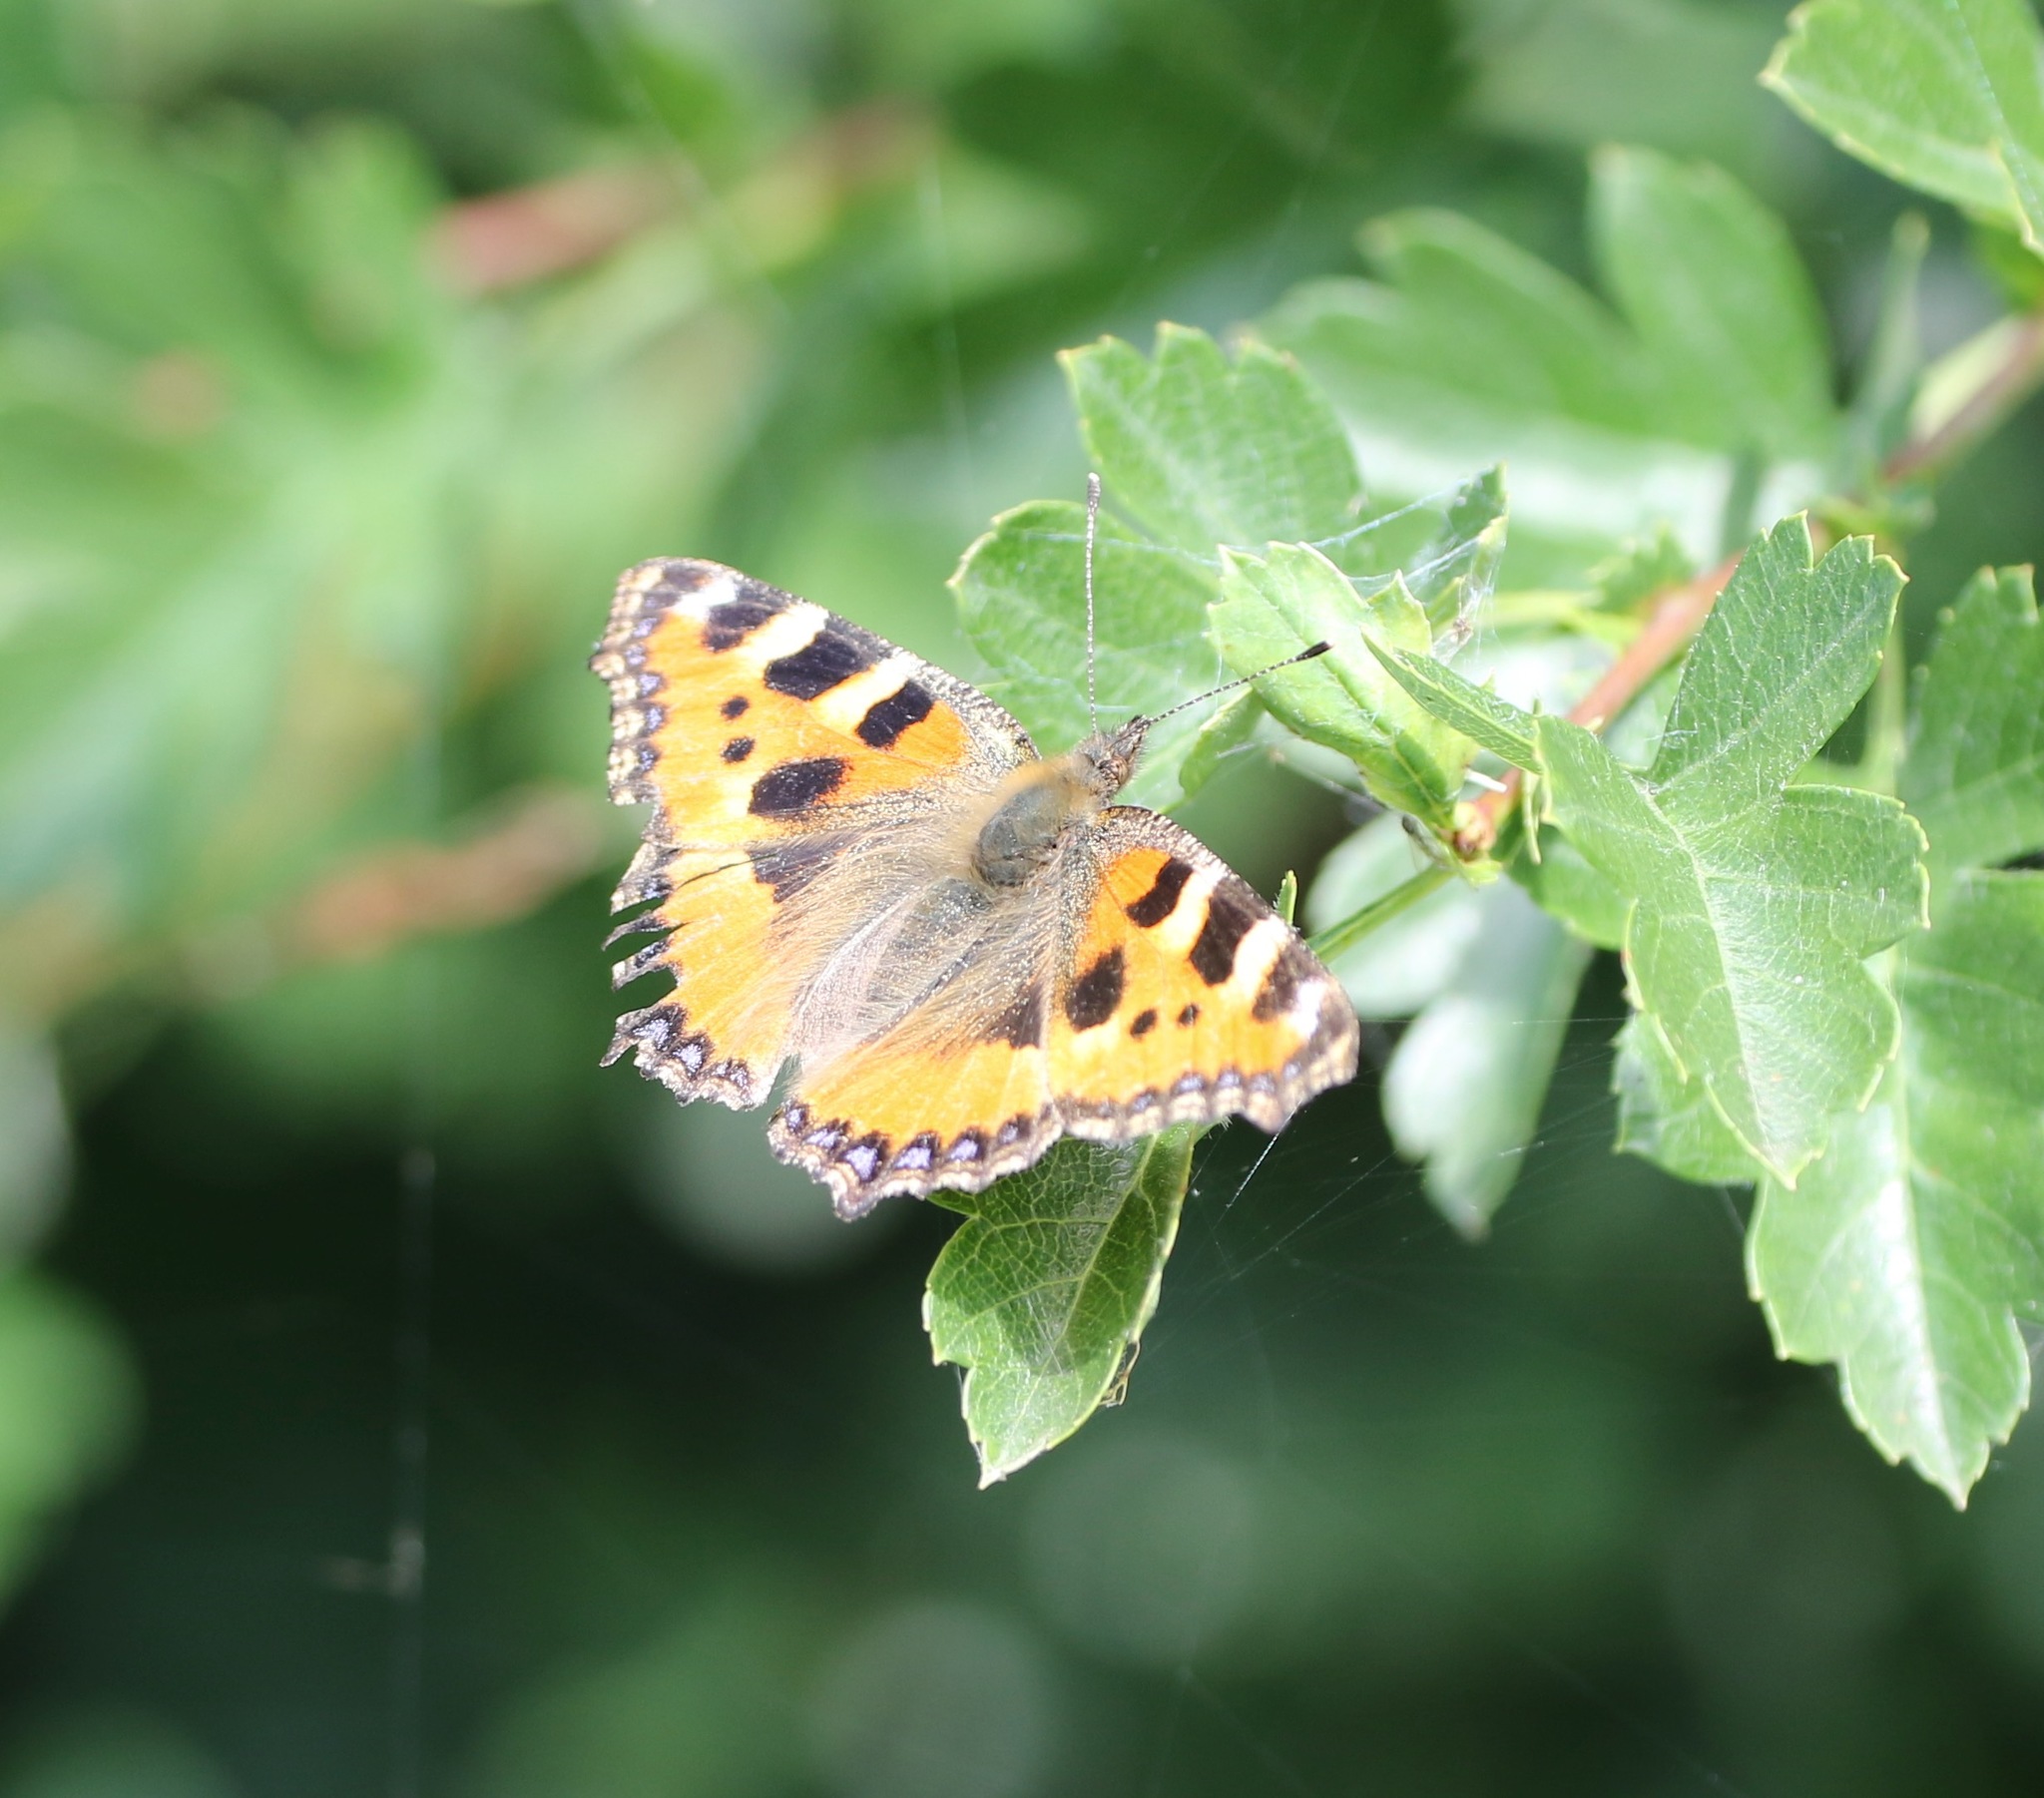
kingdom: Animalia
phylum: Arthropoda
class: Insecta
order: Lepidoptera
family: Nymphalidae
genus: Aglais
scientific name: Aglais urticae
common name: Small tortoiseshell
